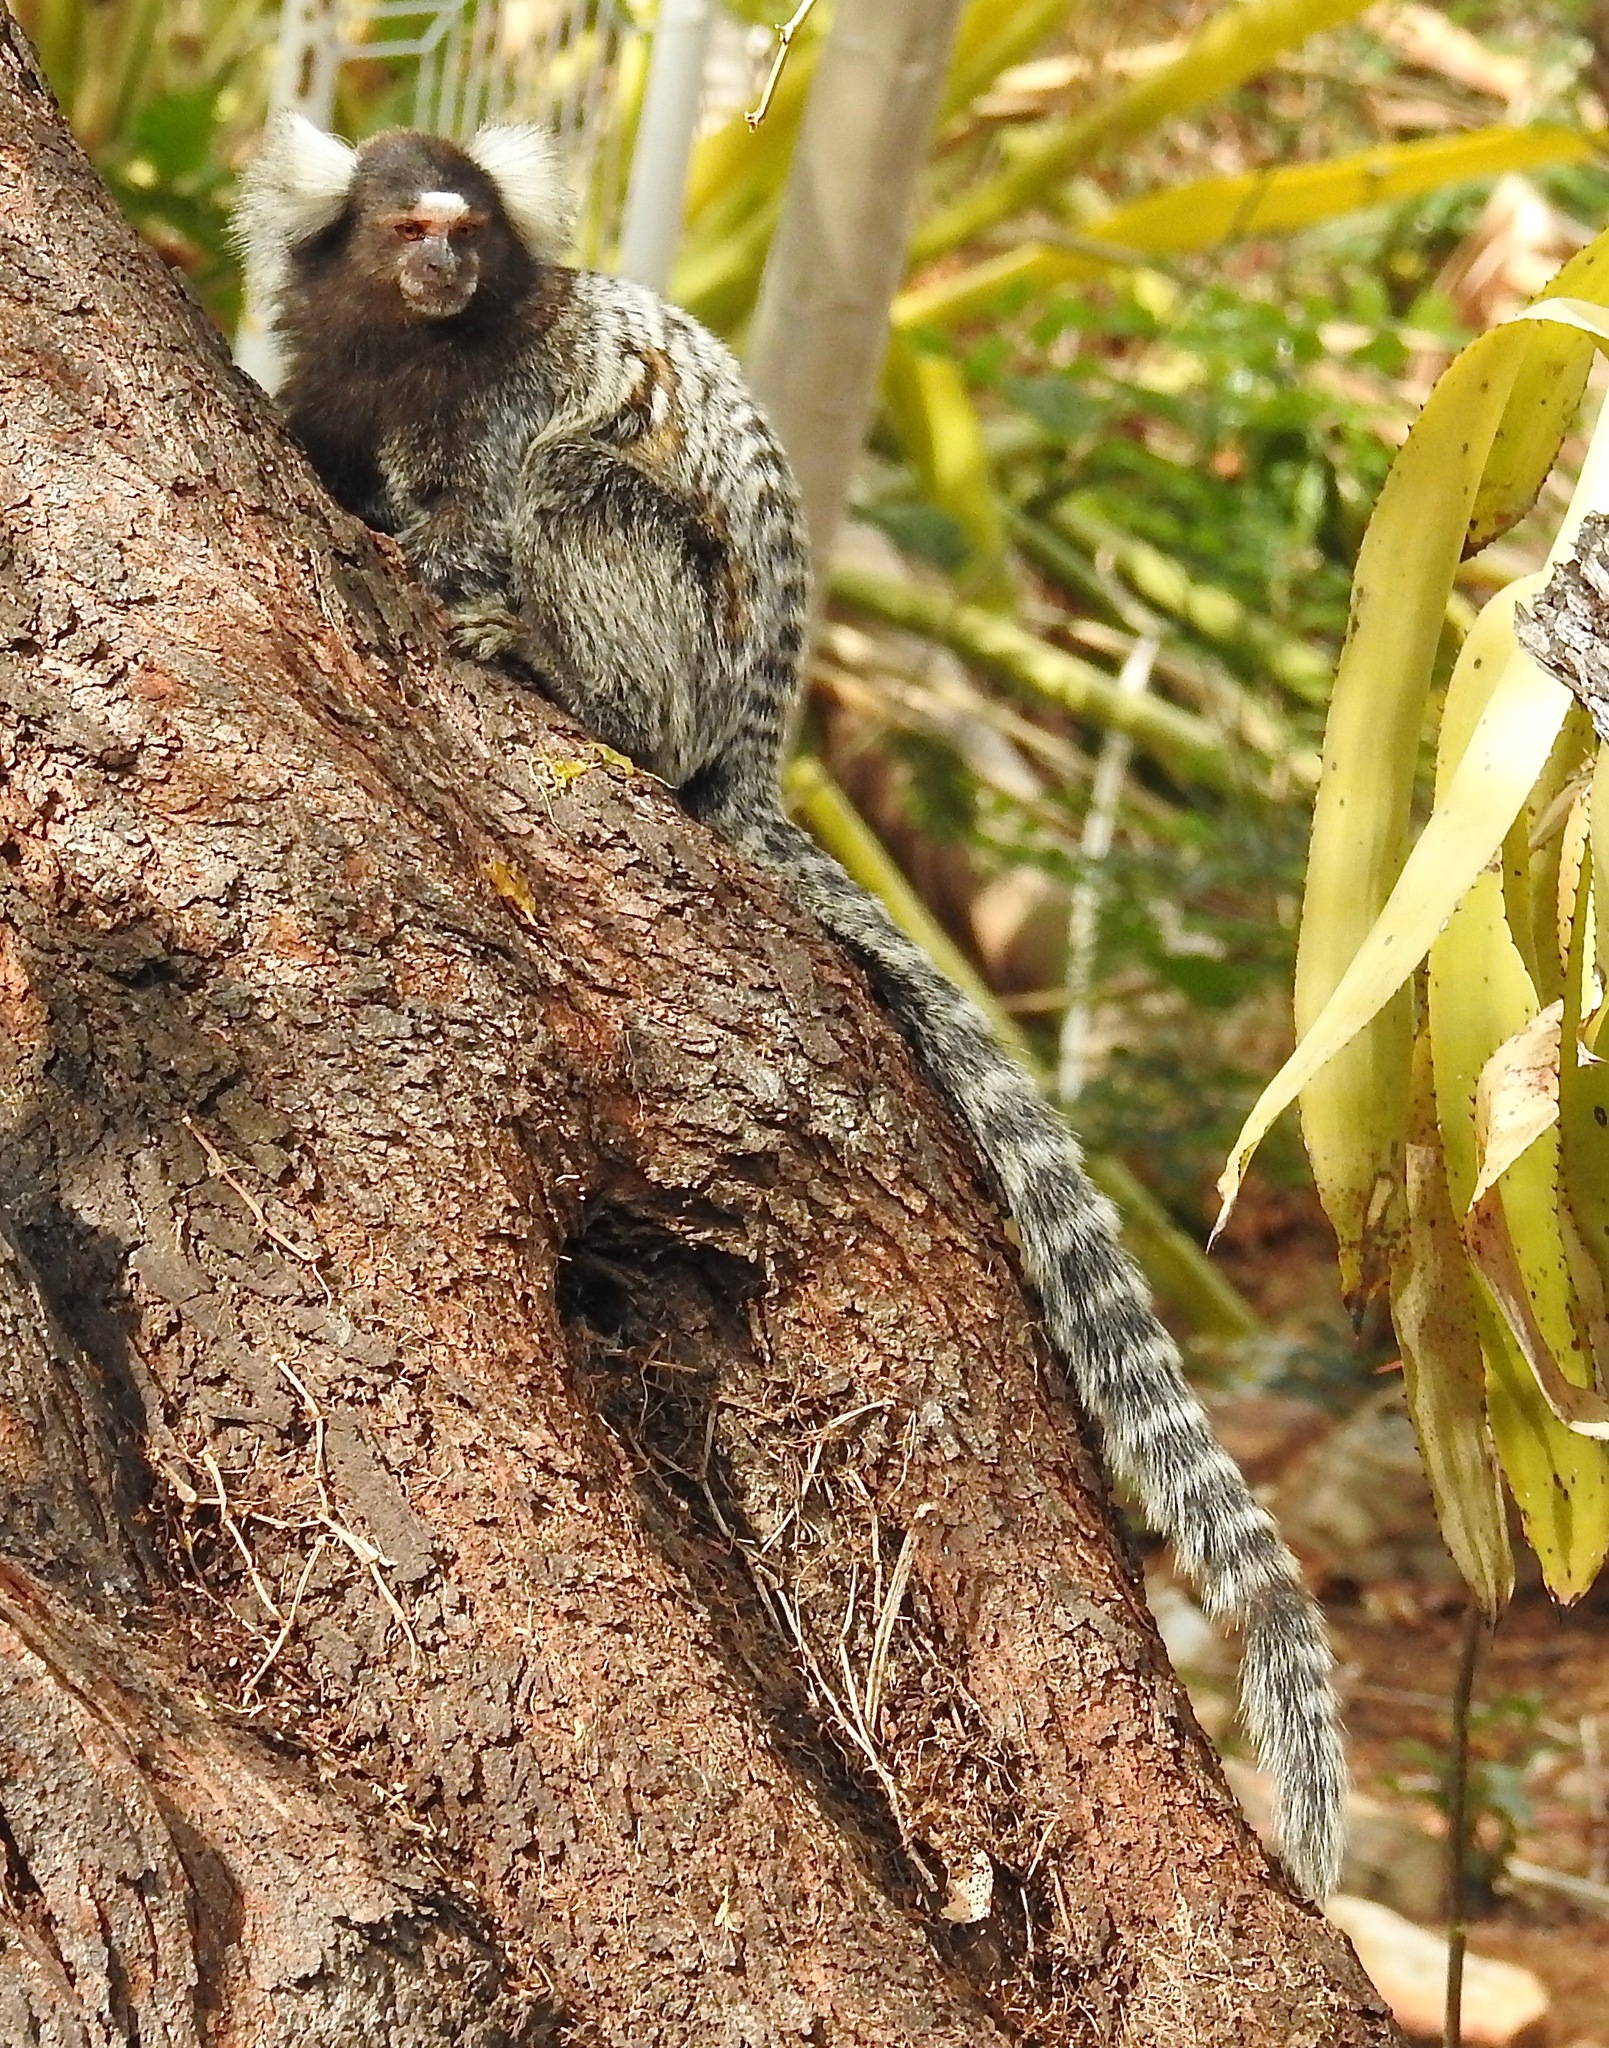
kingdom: Animalia
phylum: Chordata
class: Mammalia
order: Primates
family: Callitrichidae
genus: Callithrix
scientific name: Callithrix jacchus
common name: Common marmoset
